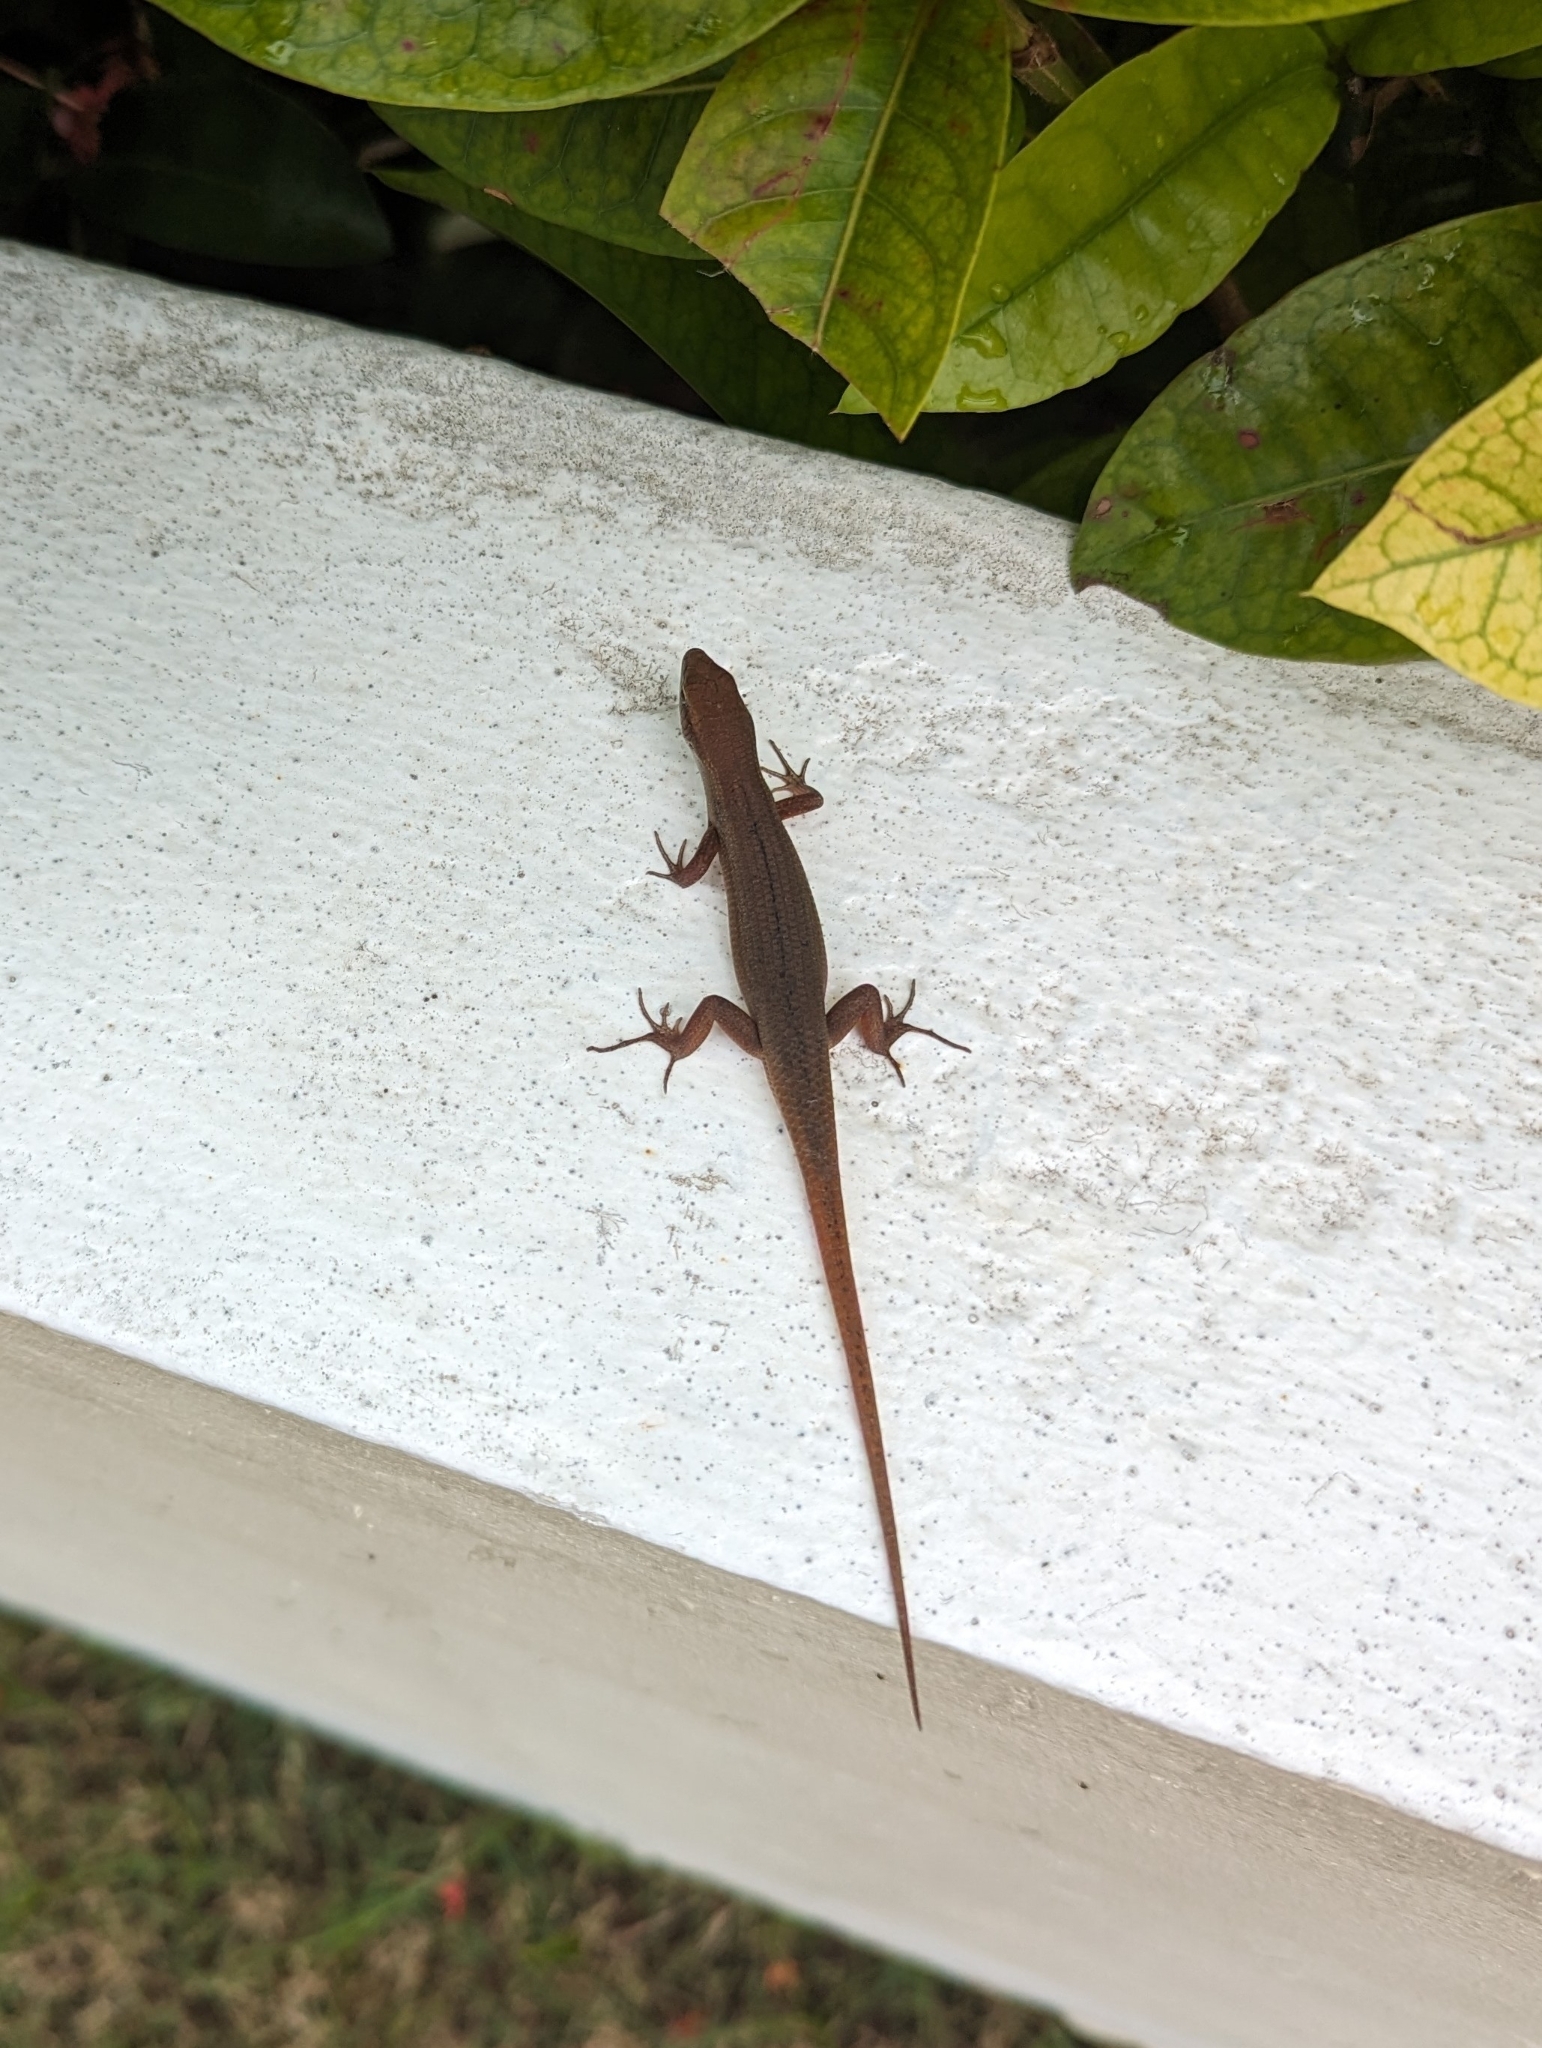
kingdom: Animalia
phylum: Chordata
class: Squamata
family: Scincidae
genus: Carlia
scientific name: Carlia ailanpalai
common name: Curious skink
